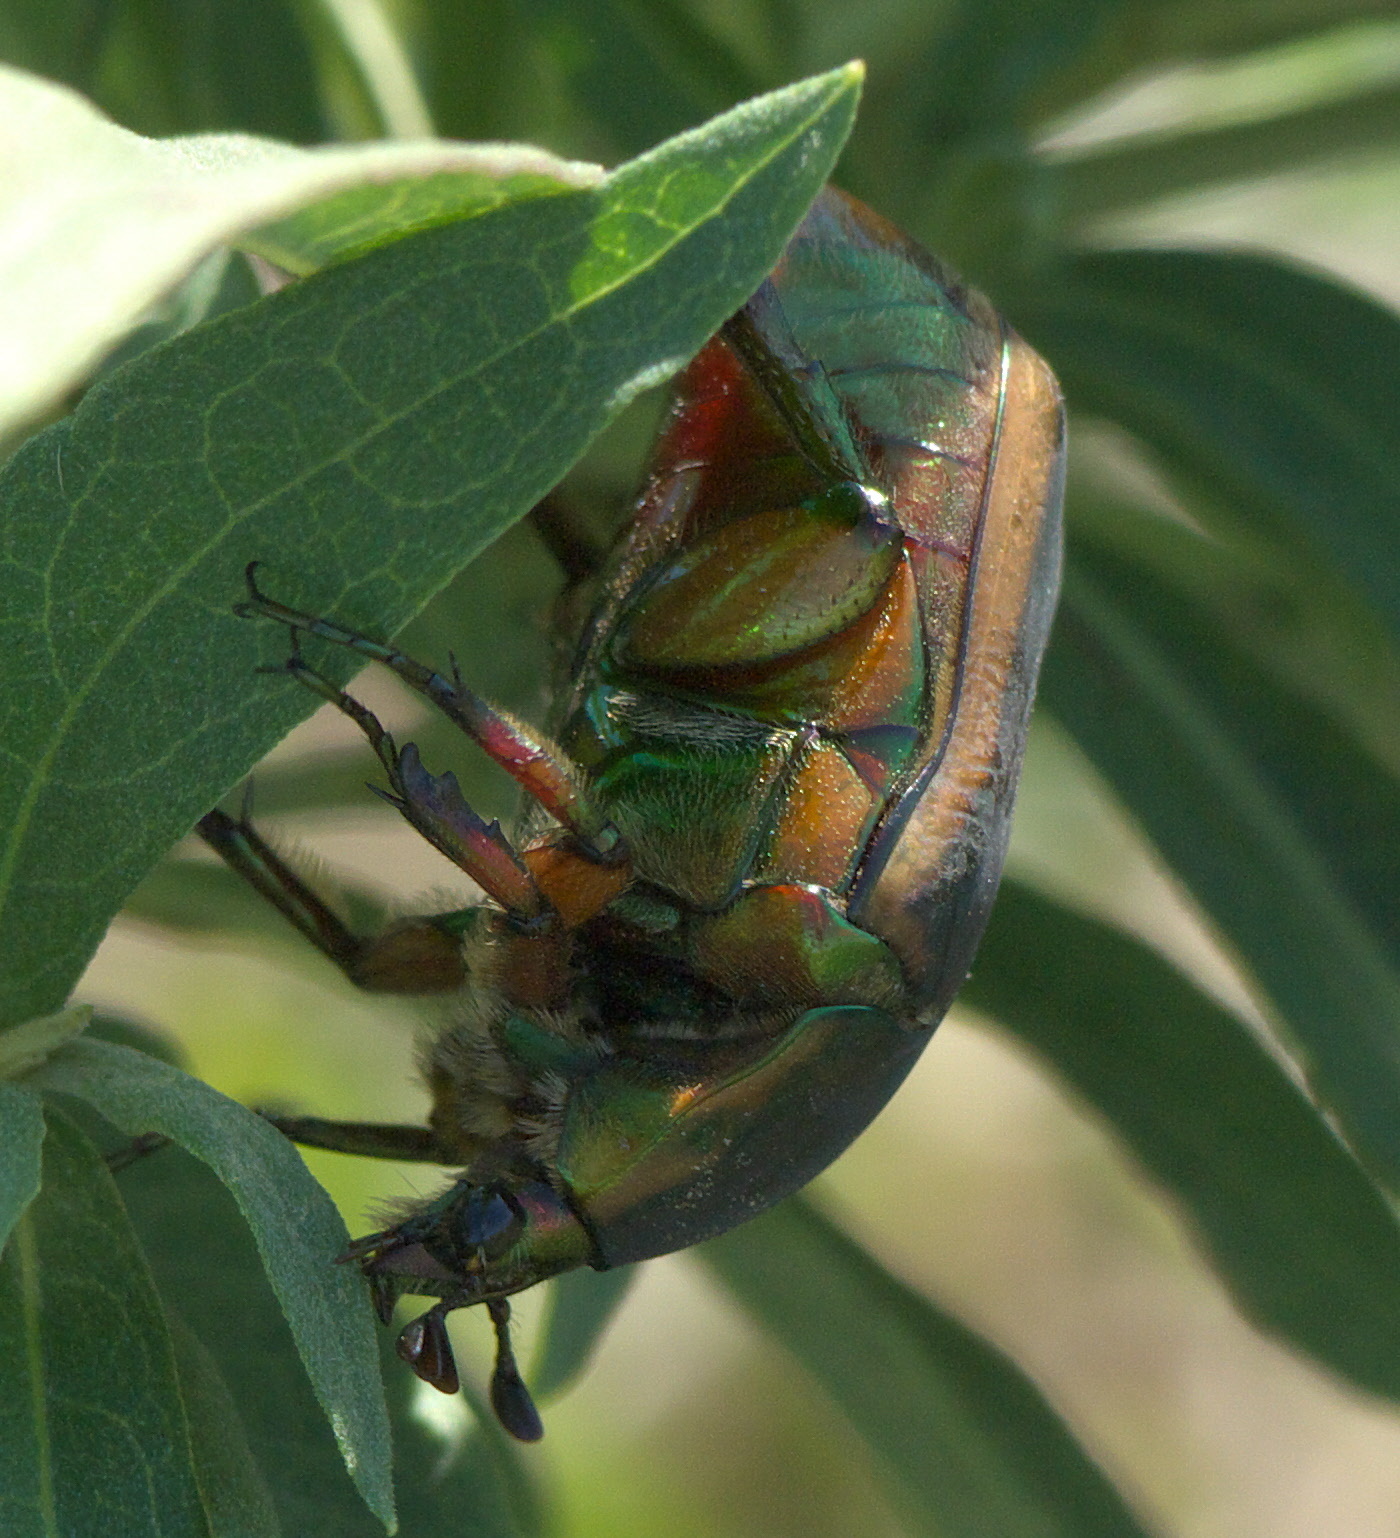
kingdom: Animalia
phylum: Arthropoda
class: Insecta
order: Coleoptera
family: Scarabaeidae
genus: Cotinis
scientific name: Cotinis nitida
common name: Common green june beetle
